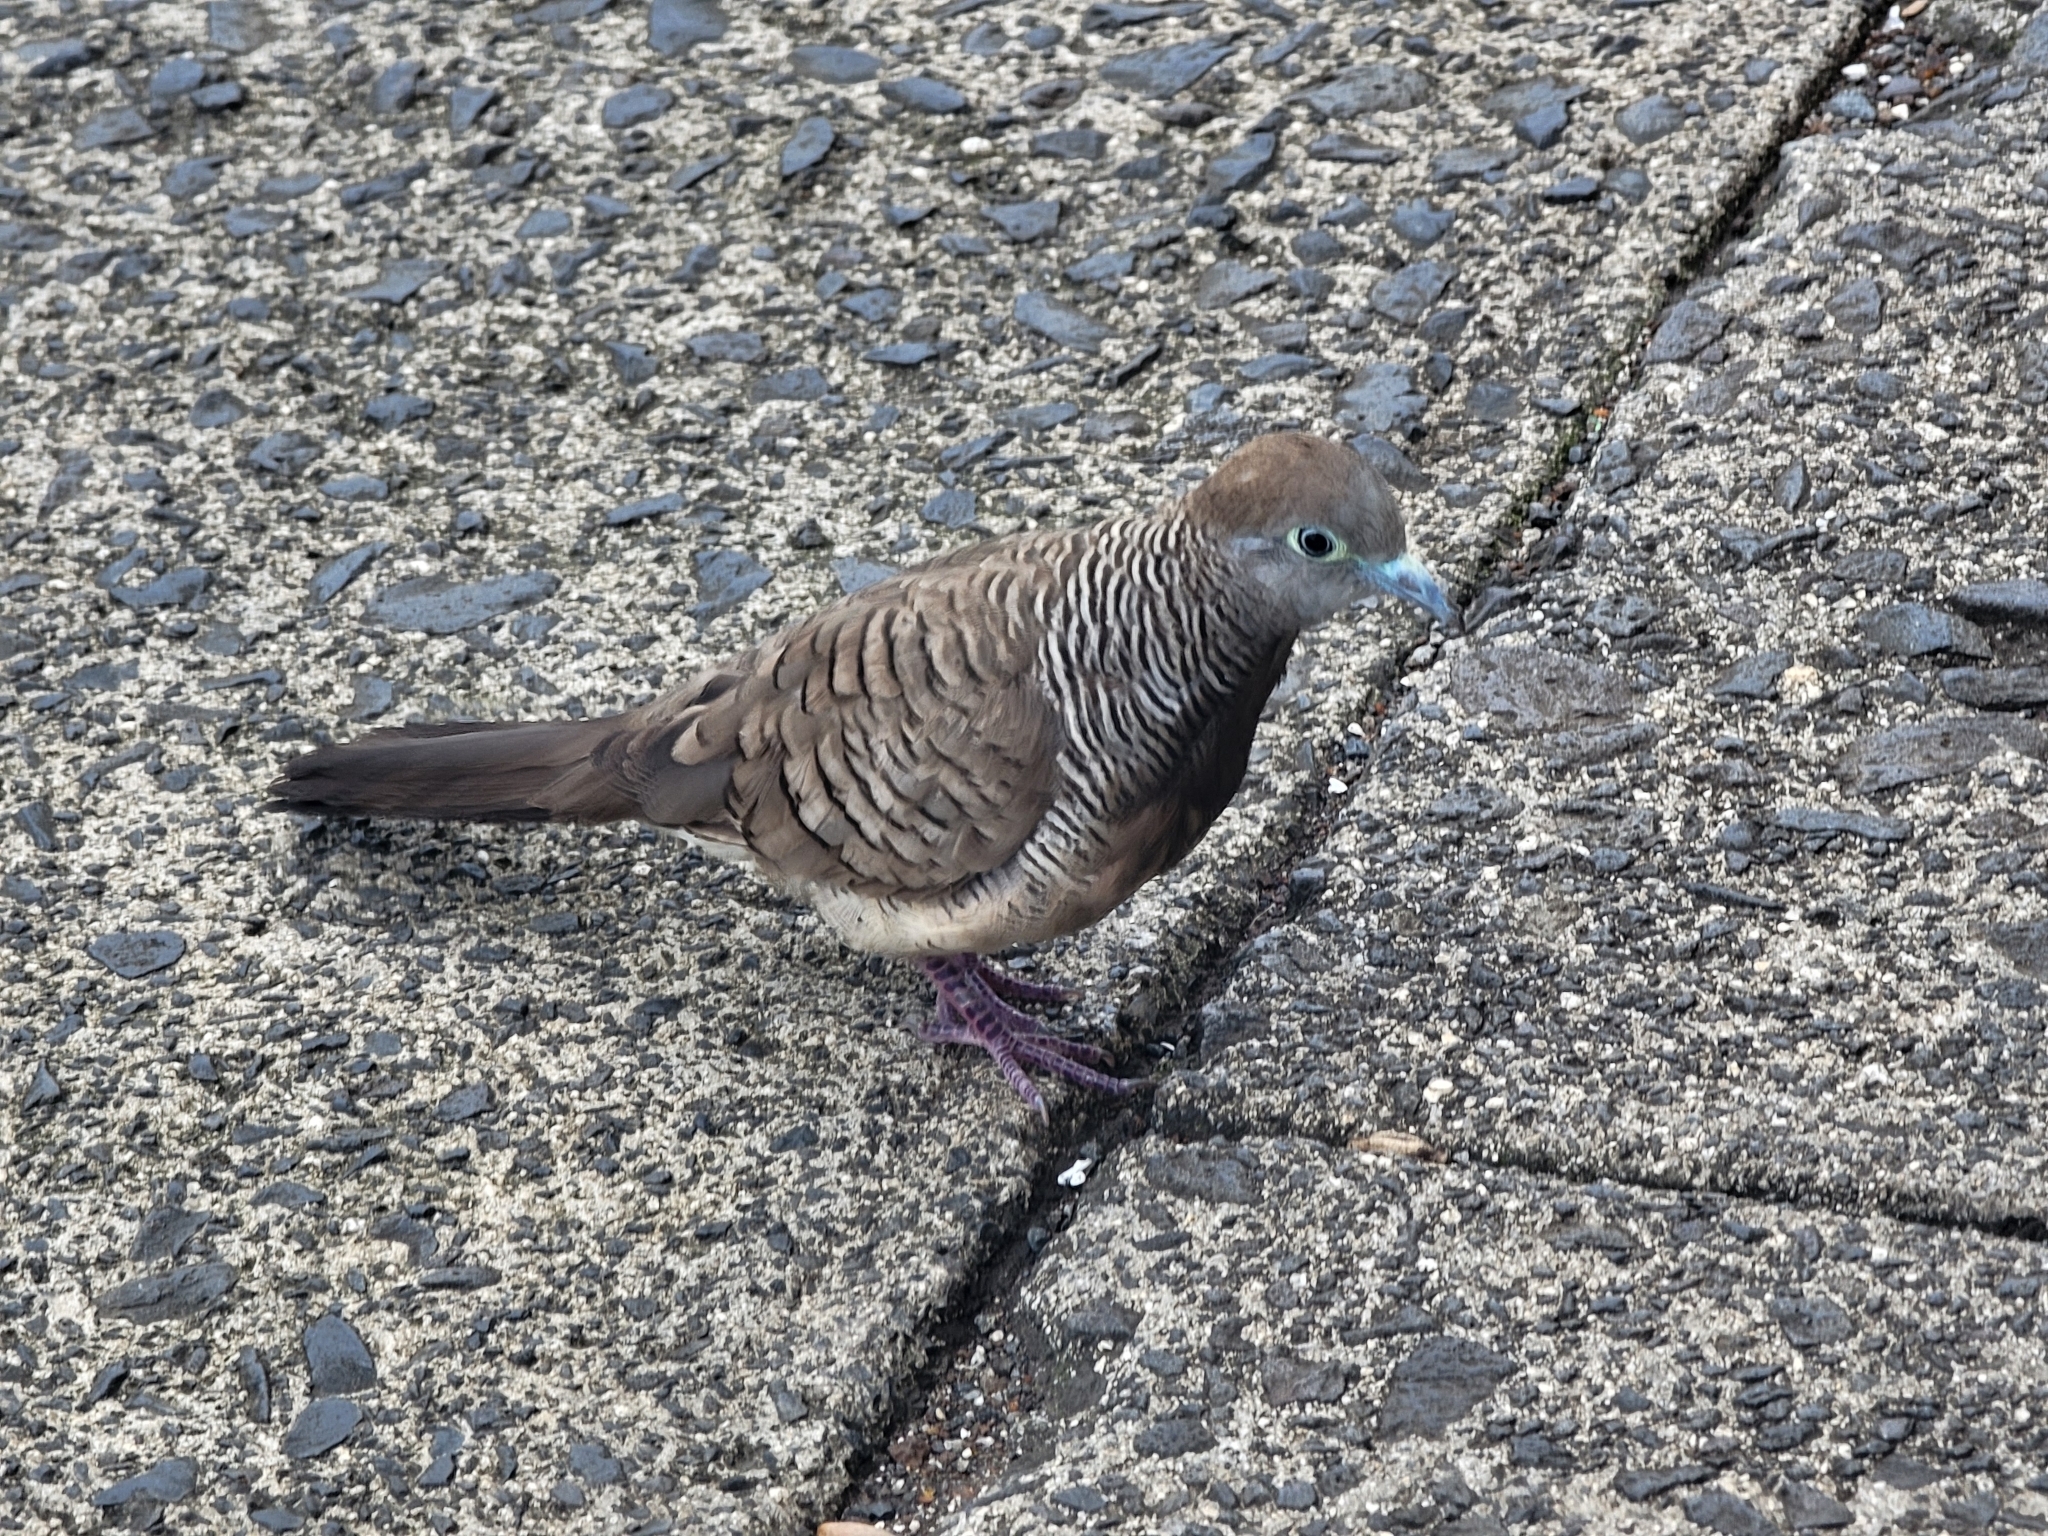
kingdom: Animalia
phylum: Chordata
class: Aves
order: Columbiformes
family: Columbidae
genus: Geopelia
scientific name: Geopelia striata
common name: Zebra dove
